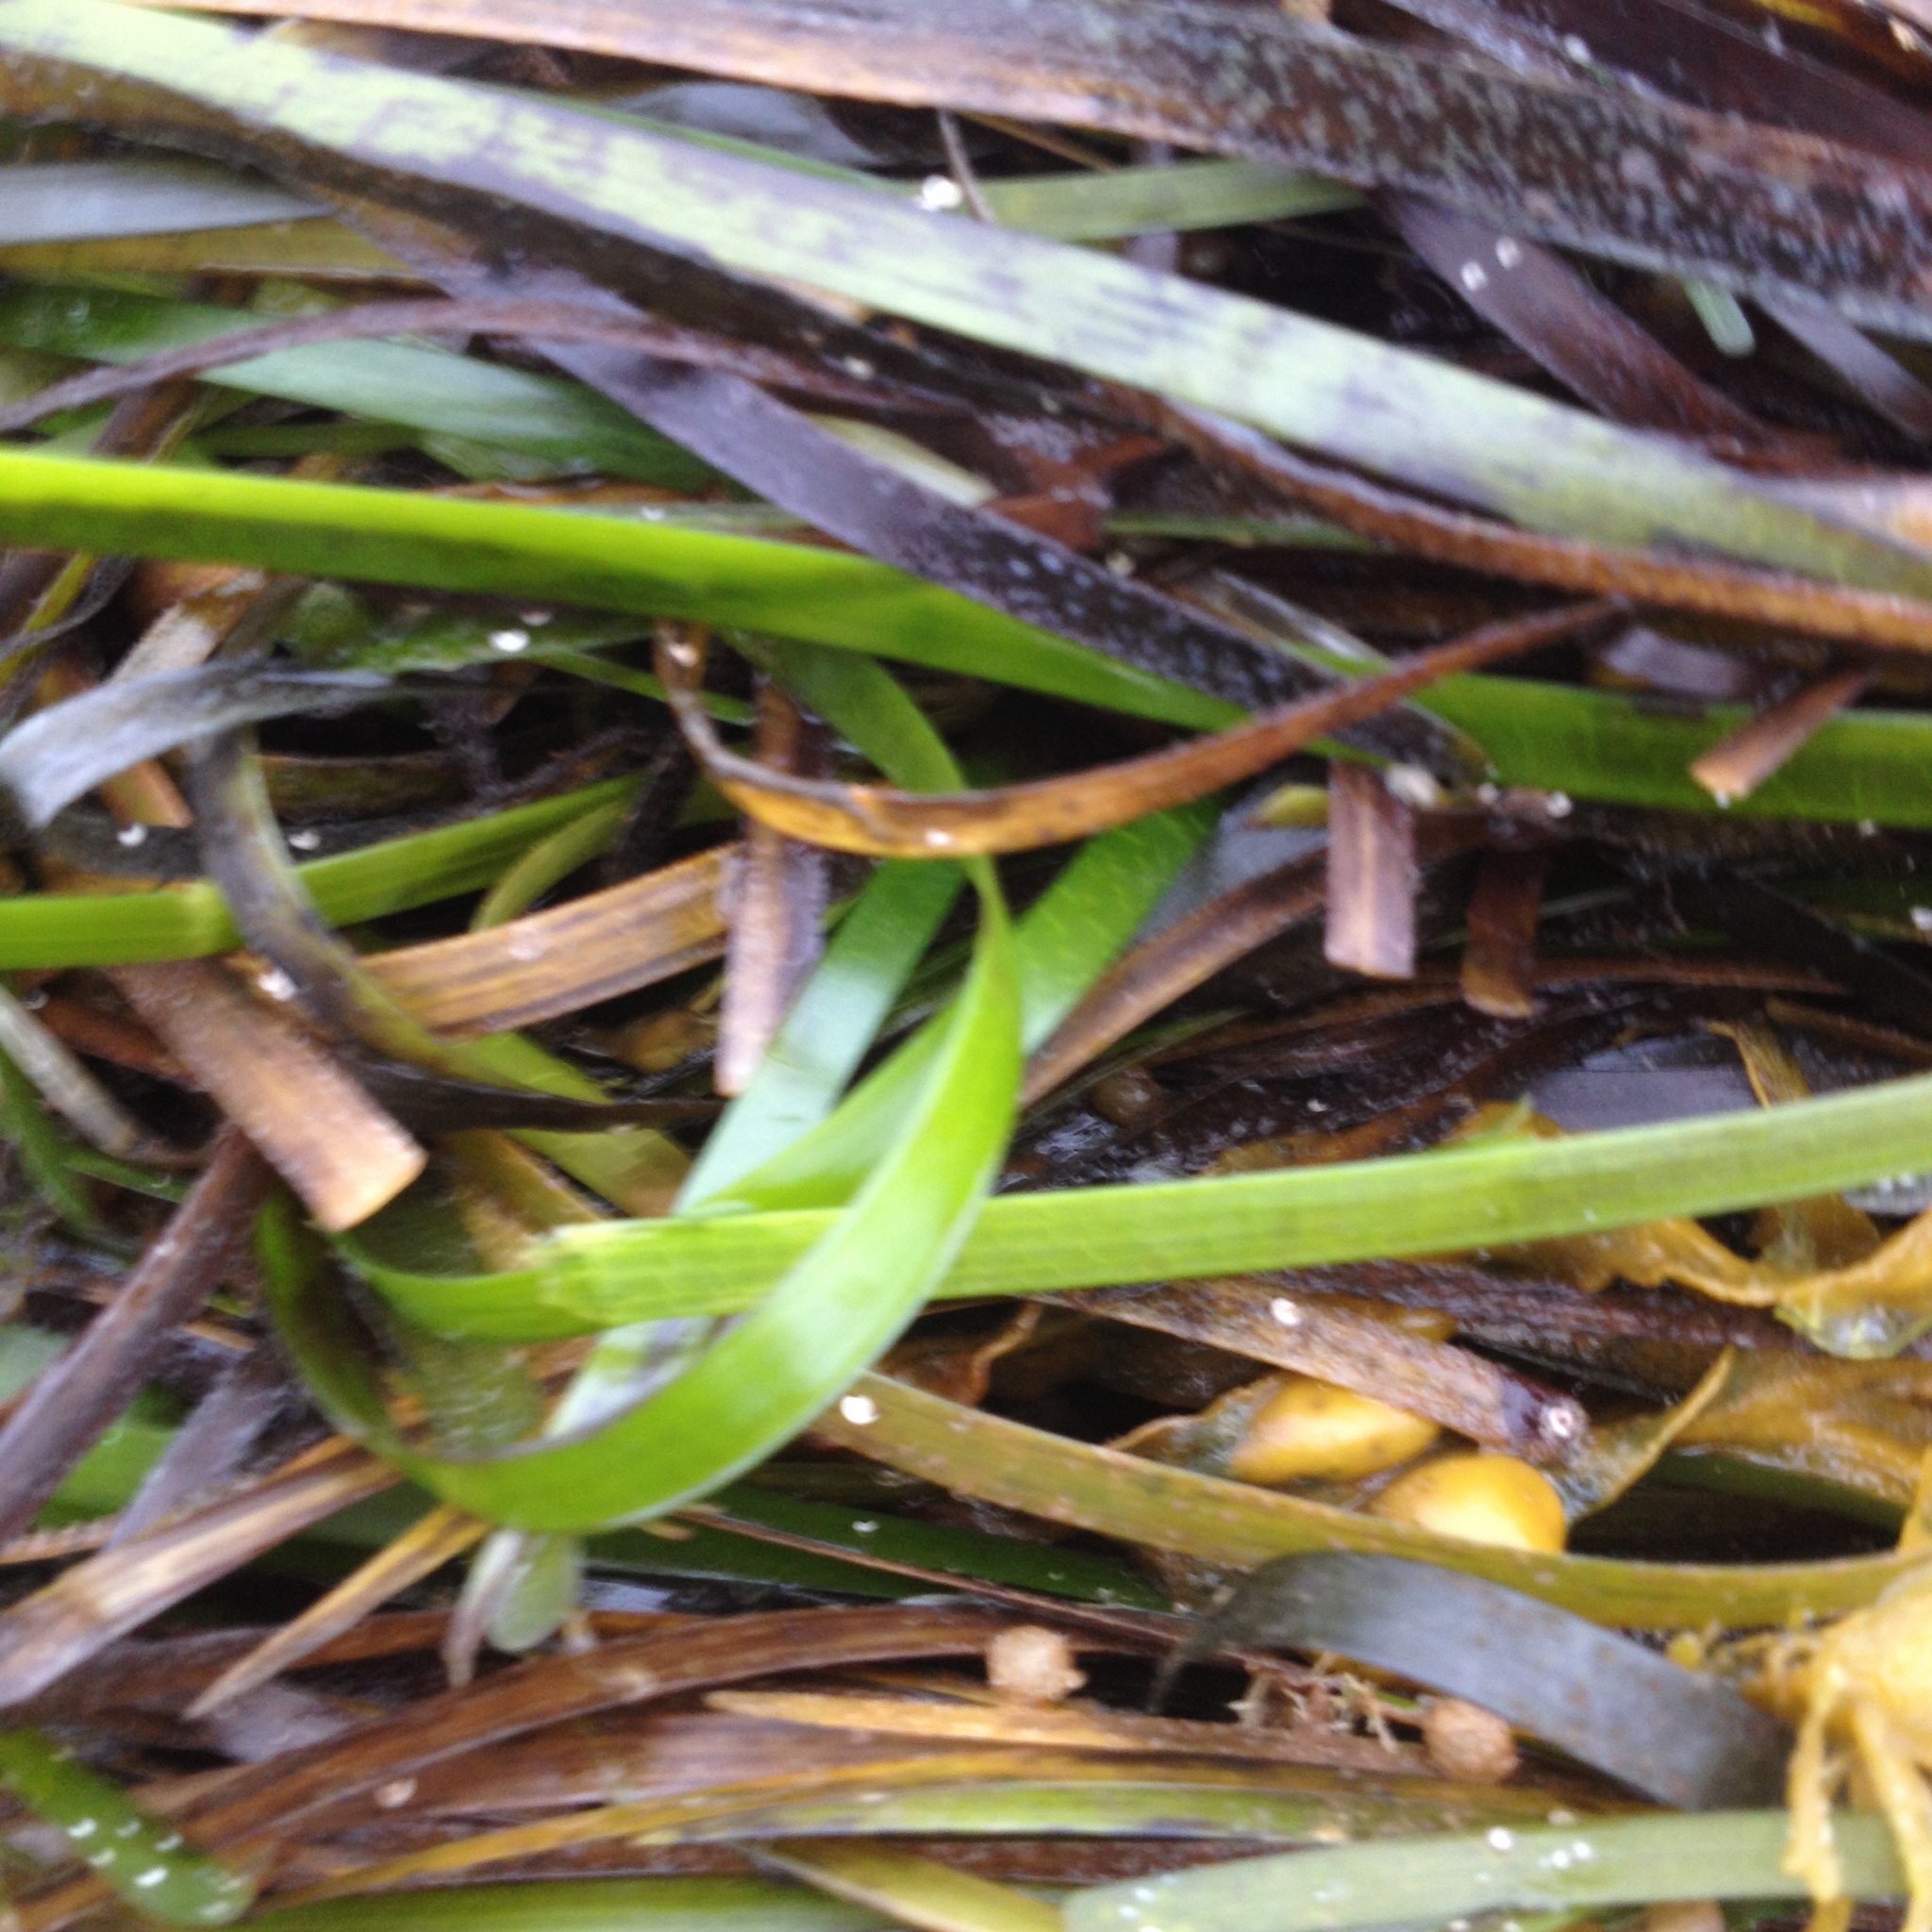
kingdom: Plantae
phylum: Tracheophyta
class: Liliopsida
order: Alismatales
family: Zosteraceae
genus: Zostera
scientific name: Zostera marina
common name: Eelgrass
